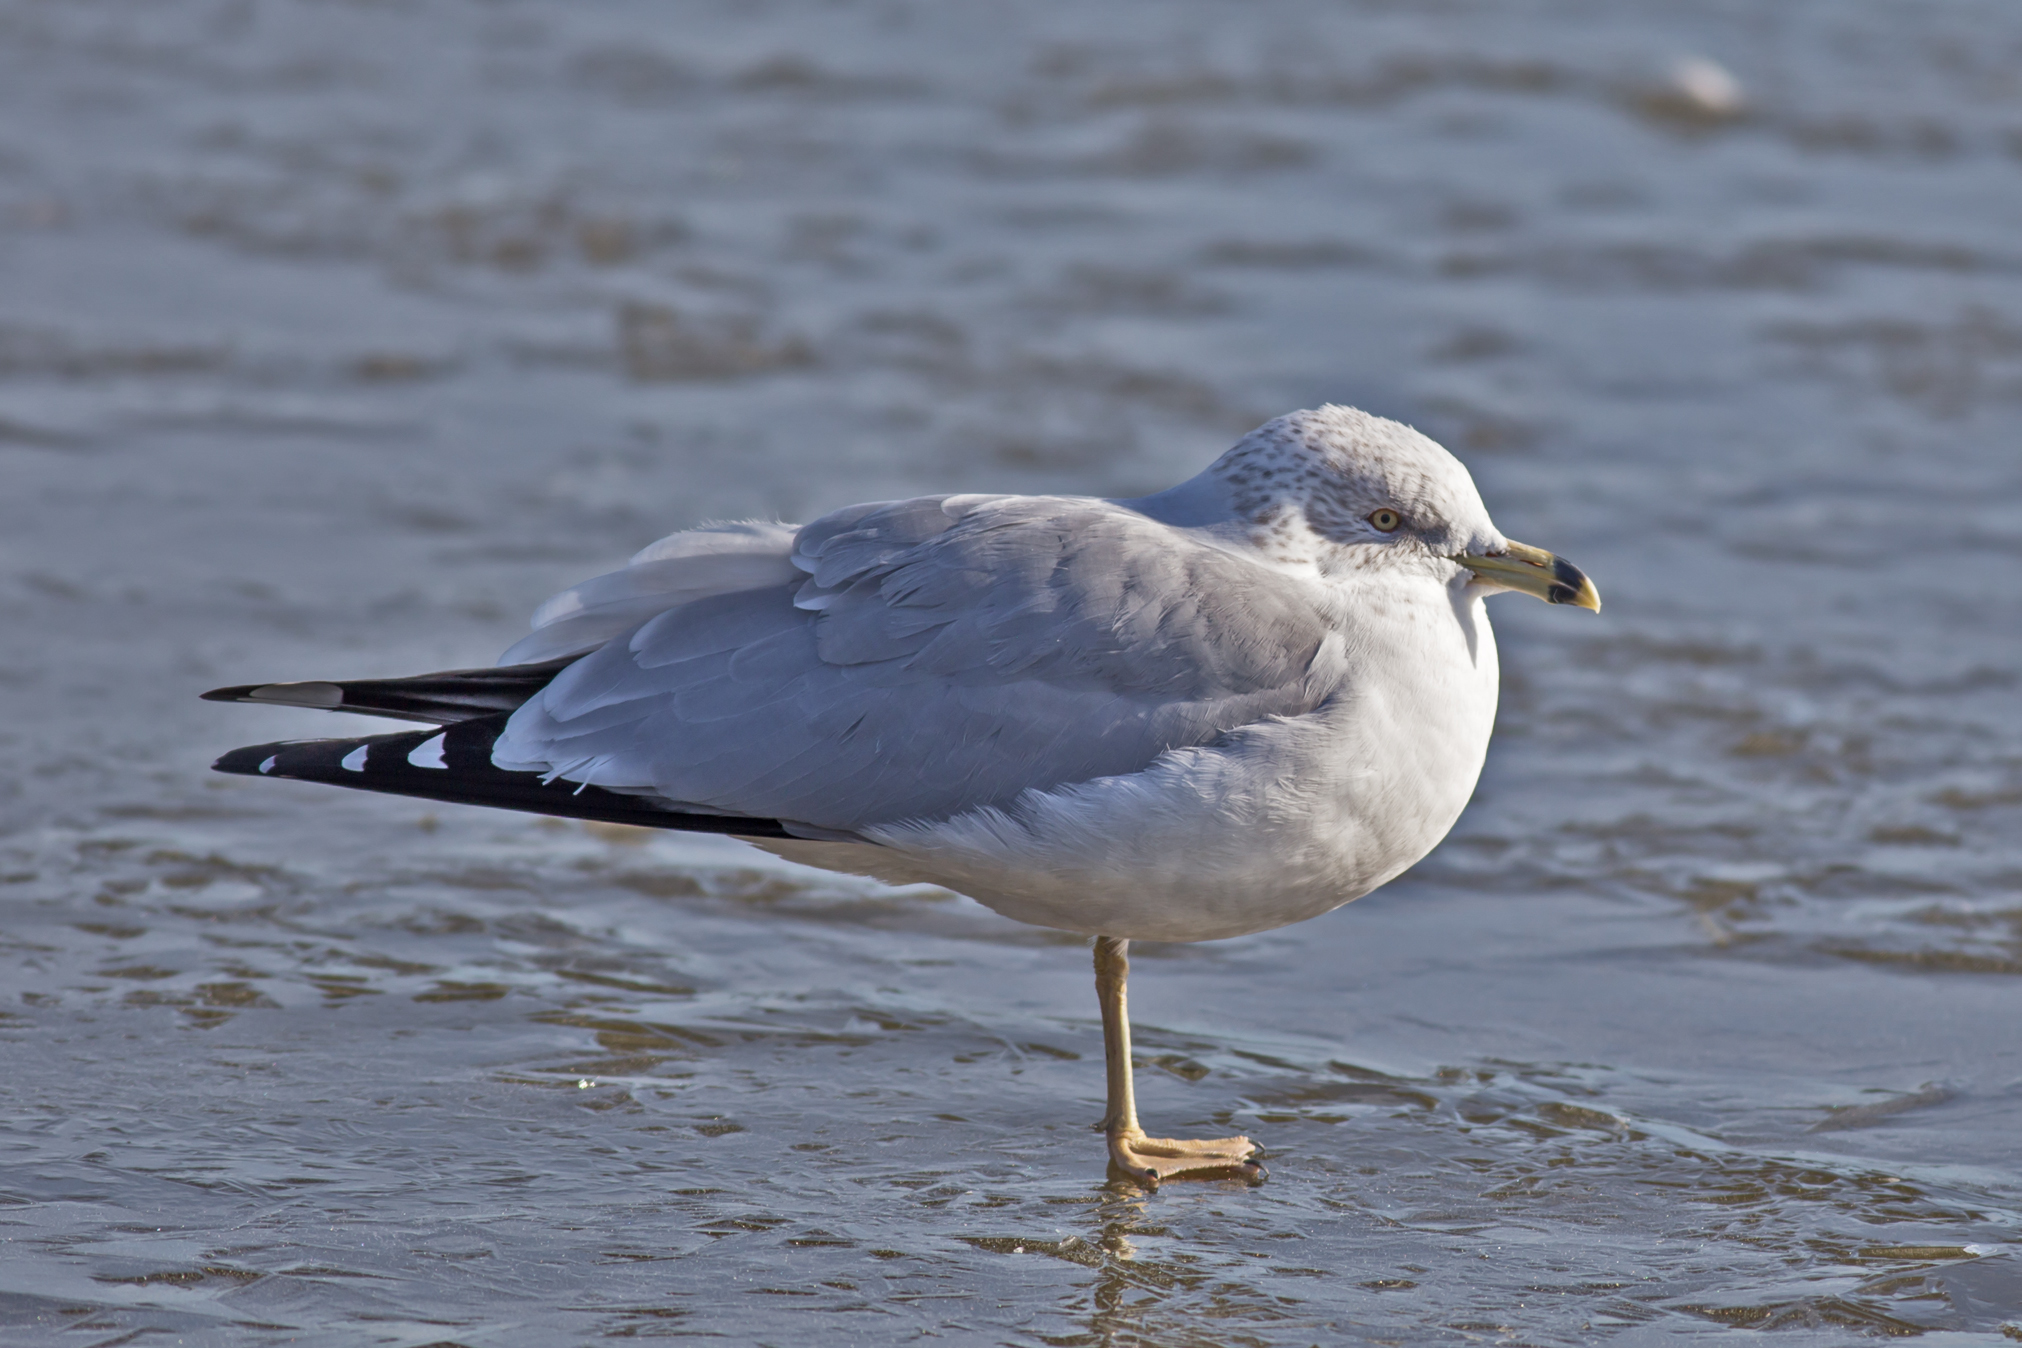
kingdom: Animalia
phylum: Chordata
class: Aves
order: Charadriiformes
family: Laridae
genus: Larus
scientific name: Larus delawarensis
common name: Ring-billed gull
